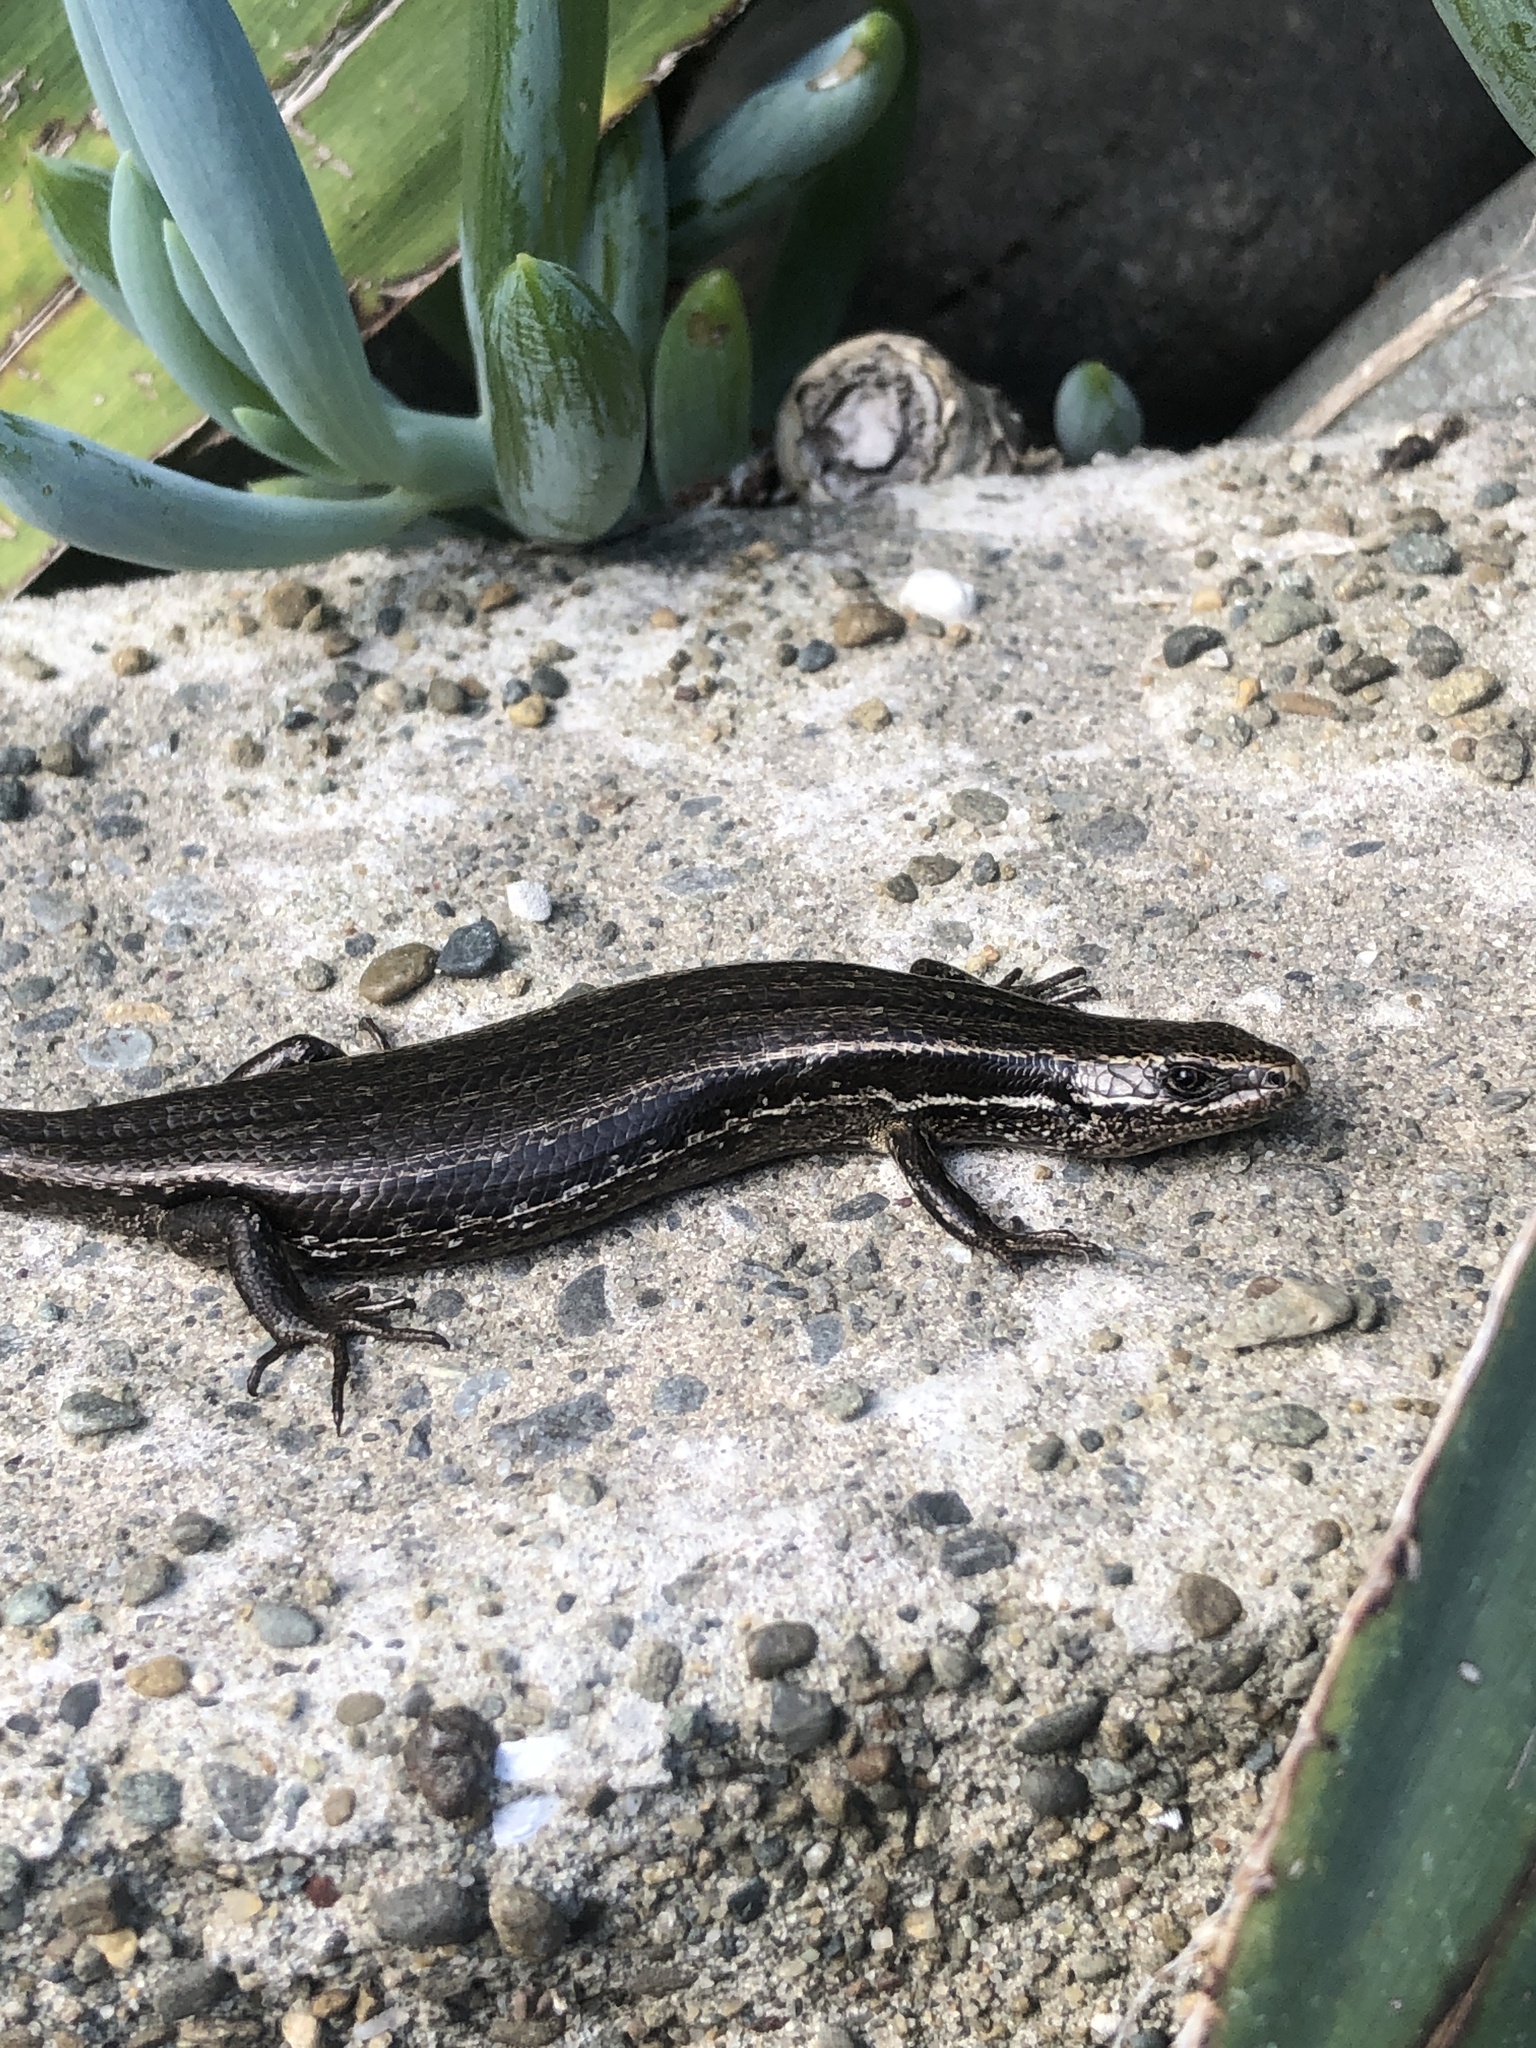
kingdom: Animalia
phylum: Chordata
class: Squamata
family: Scincidae
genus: Oligosoma
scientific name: Oligosoma polychroma
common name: Common new zealand skink
